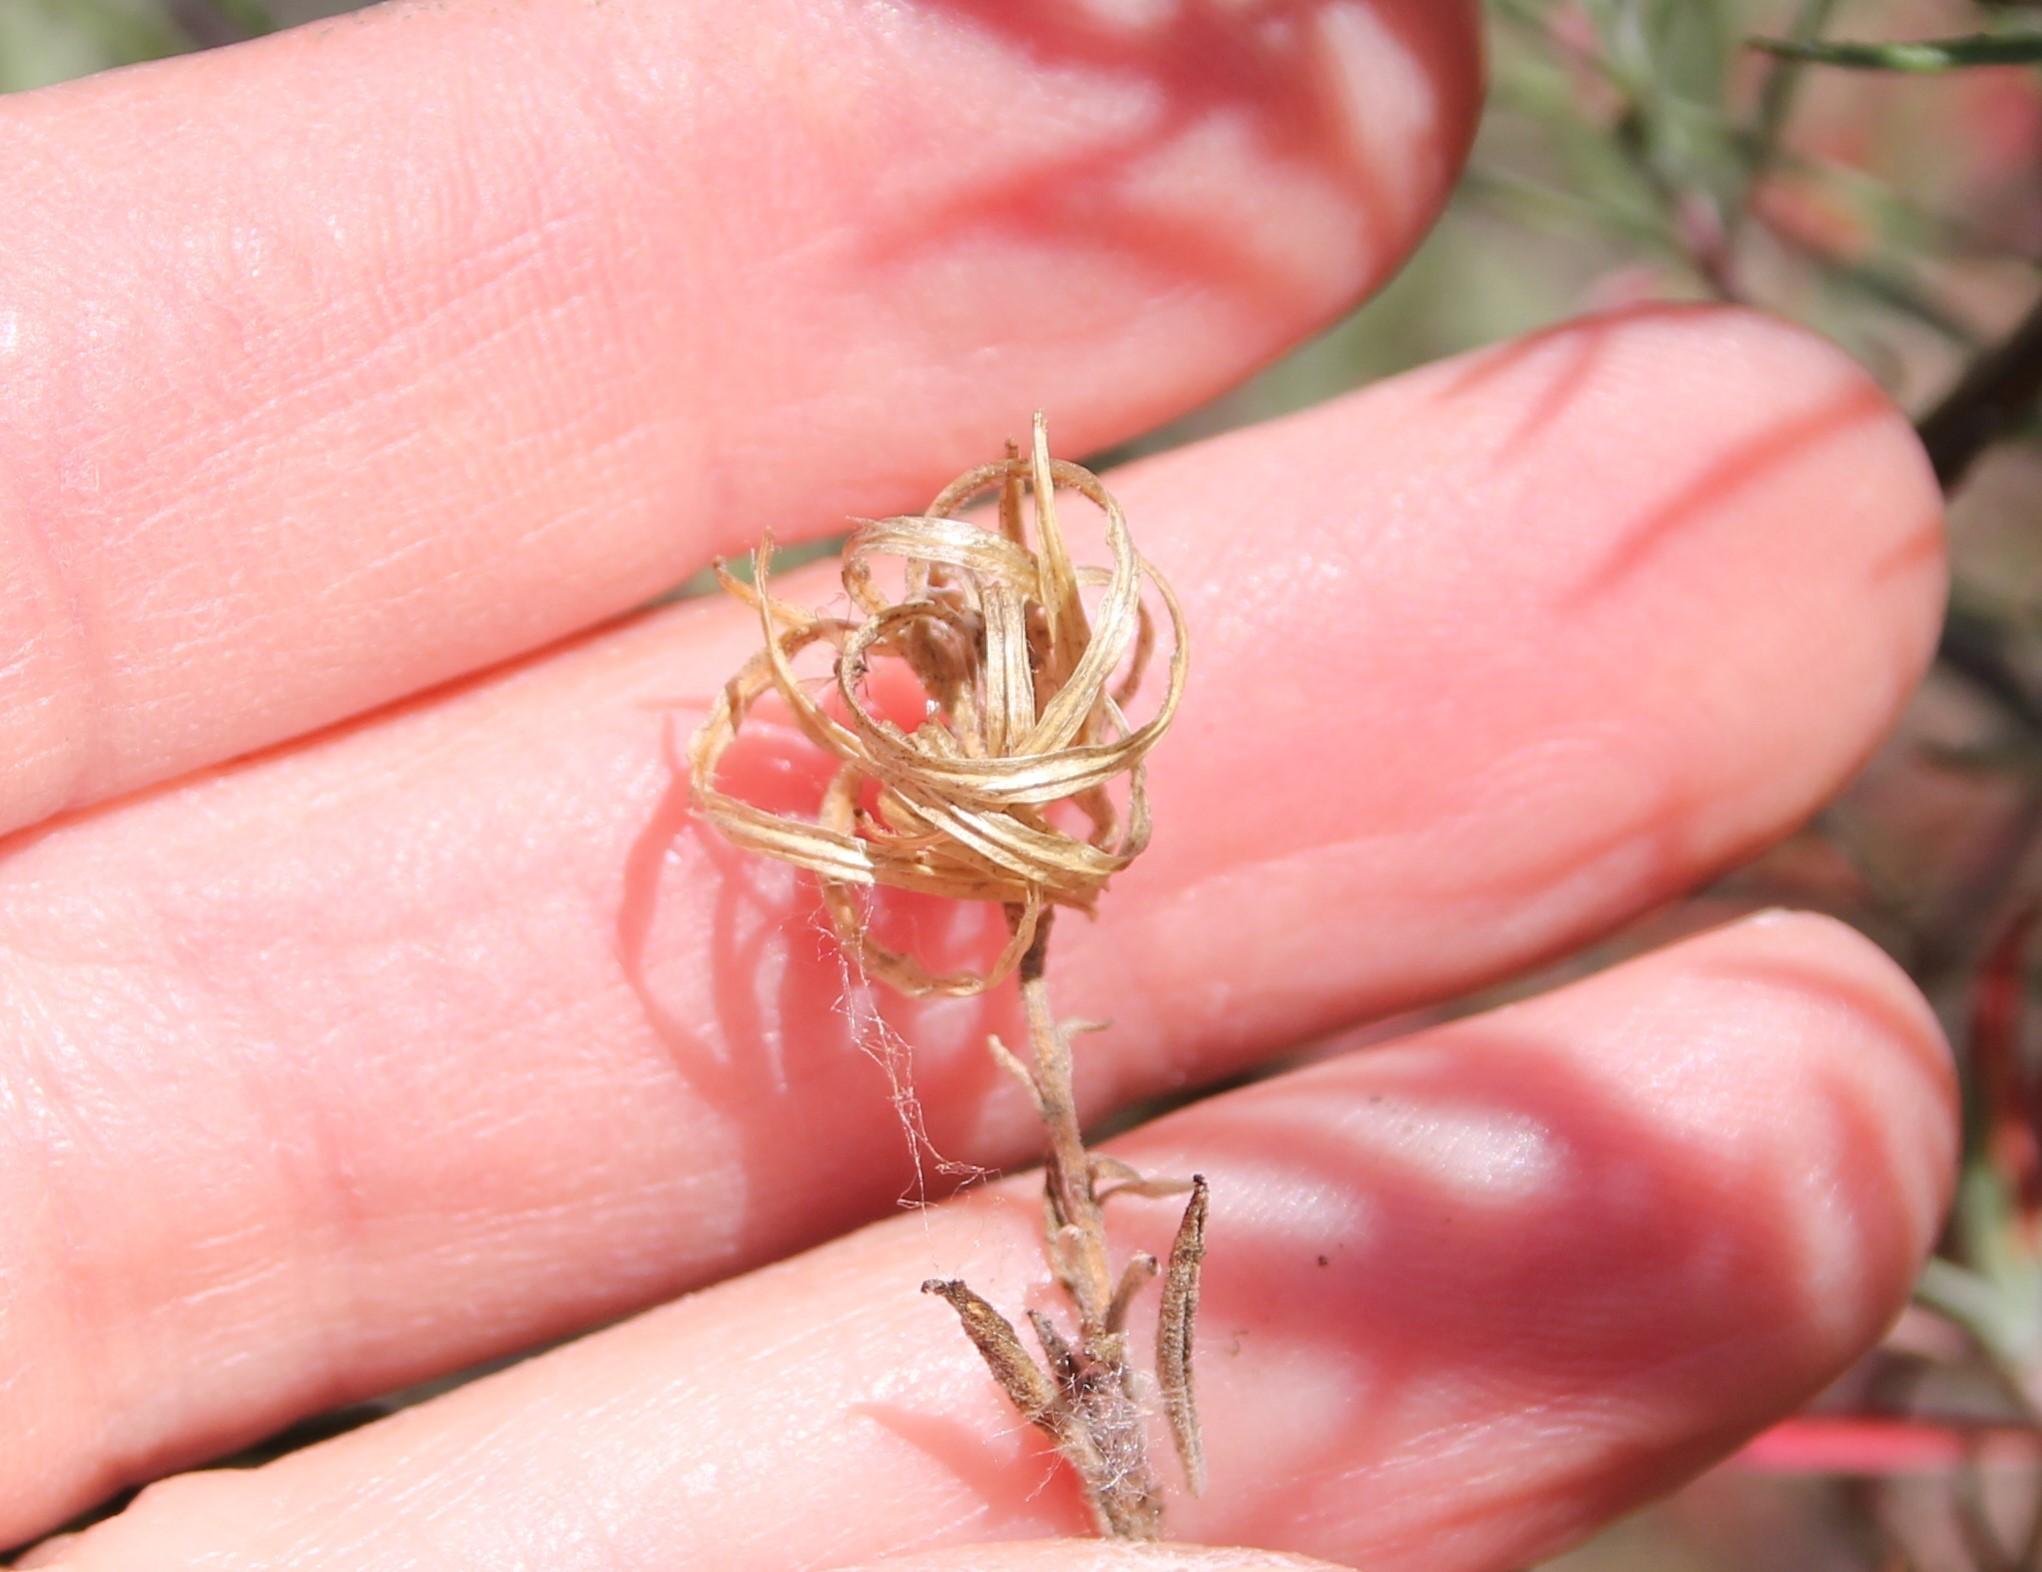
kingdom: Plantae
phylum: Tracheophyta
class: Magnoliopsida
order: Myrtales
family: Onagraceae
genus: Epilobium
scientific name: Epilobium canum
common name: California-fuchsia
